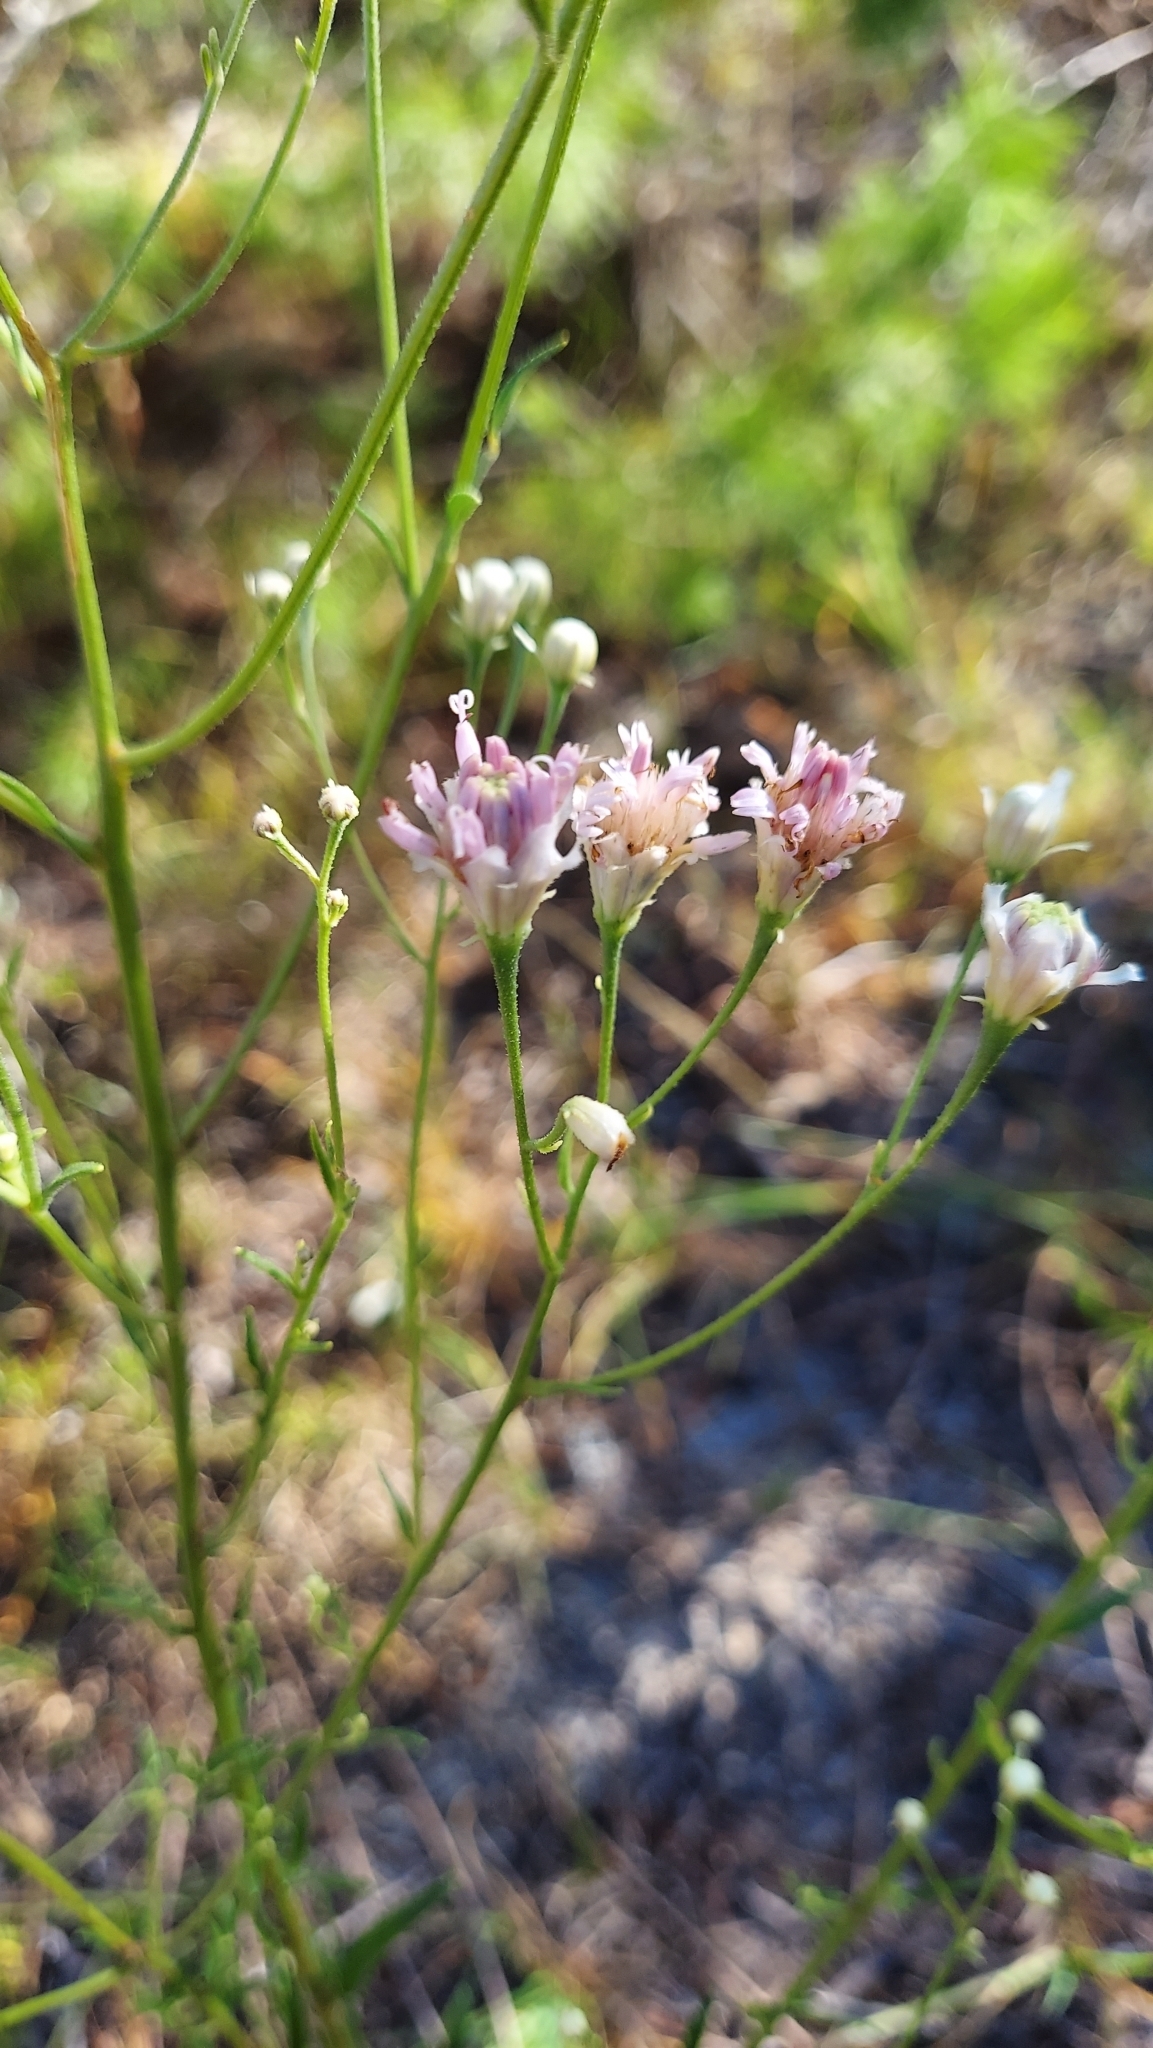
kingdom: Plantae
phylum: Tracheophyta
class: Magnoliopsida
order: Asterales
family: Asteraceae
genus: Palafoxia
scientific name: Palafoxia integrifolia
